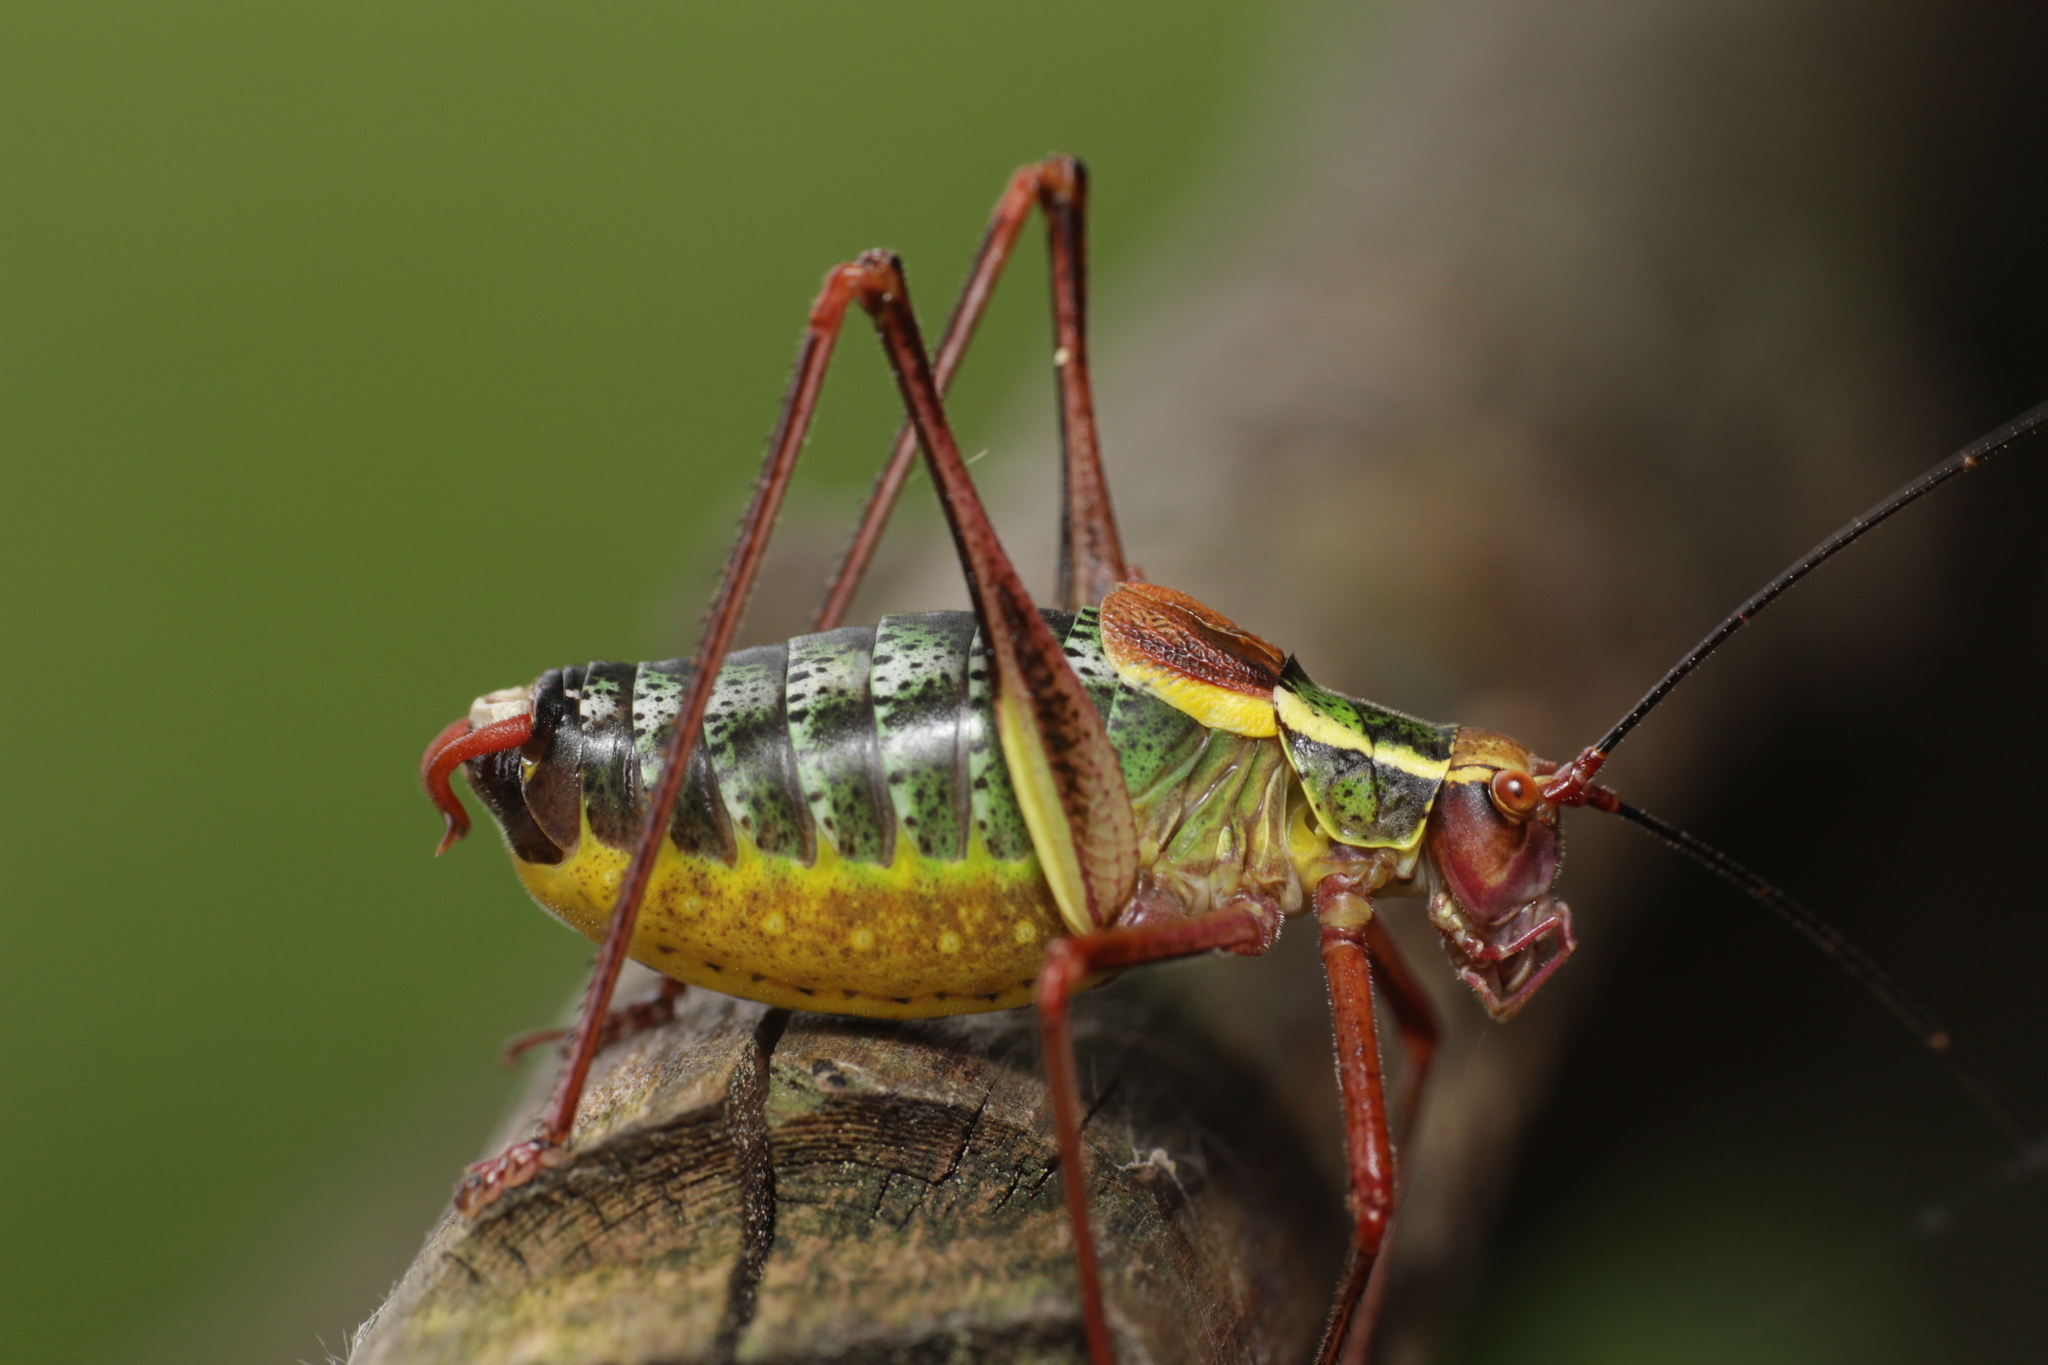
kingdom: Animalia
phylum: Arthropoda
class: Insecta
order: Orthoptera
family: Tettigoniidae
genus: Barbitistes
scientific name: Barbitistes serricauda
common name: Saw-tailed bush-cricket
